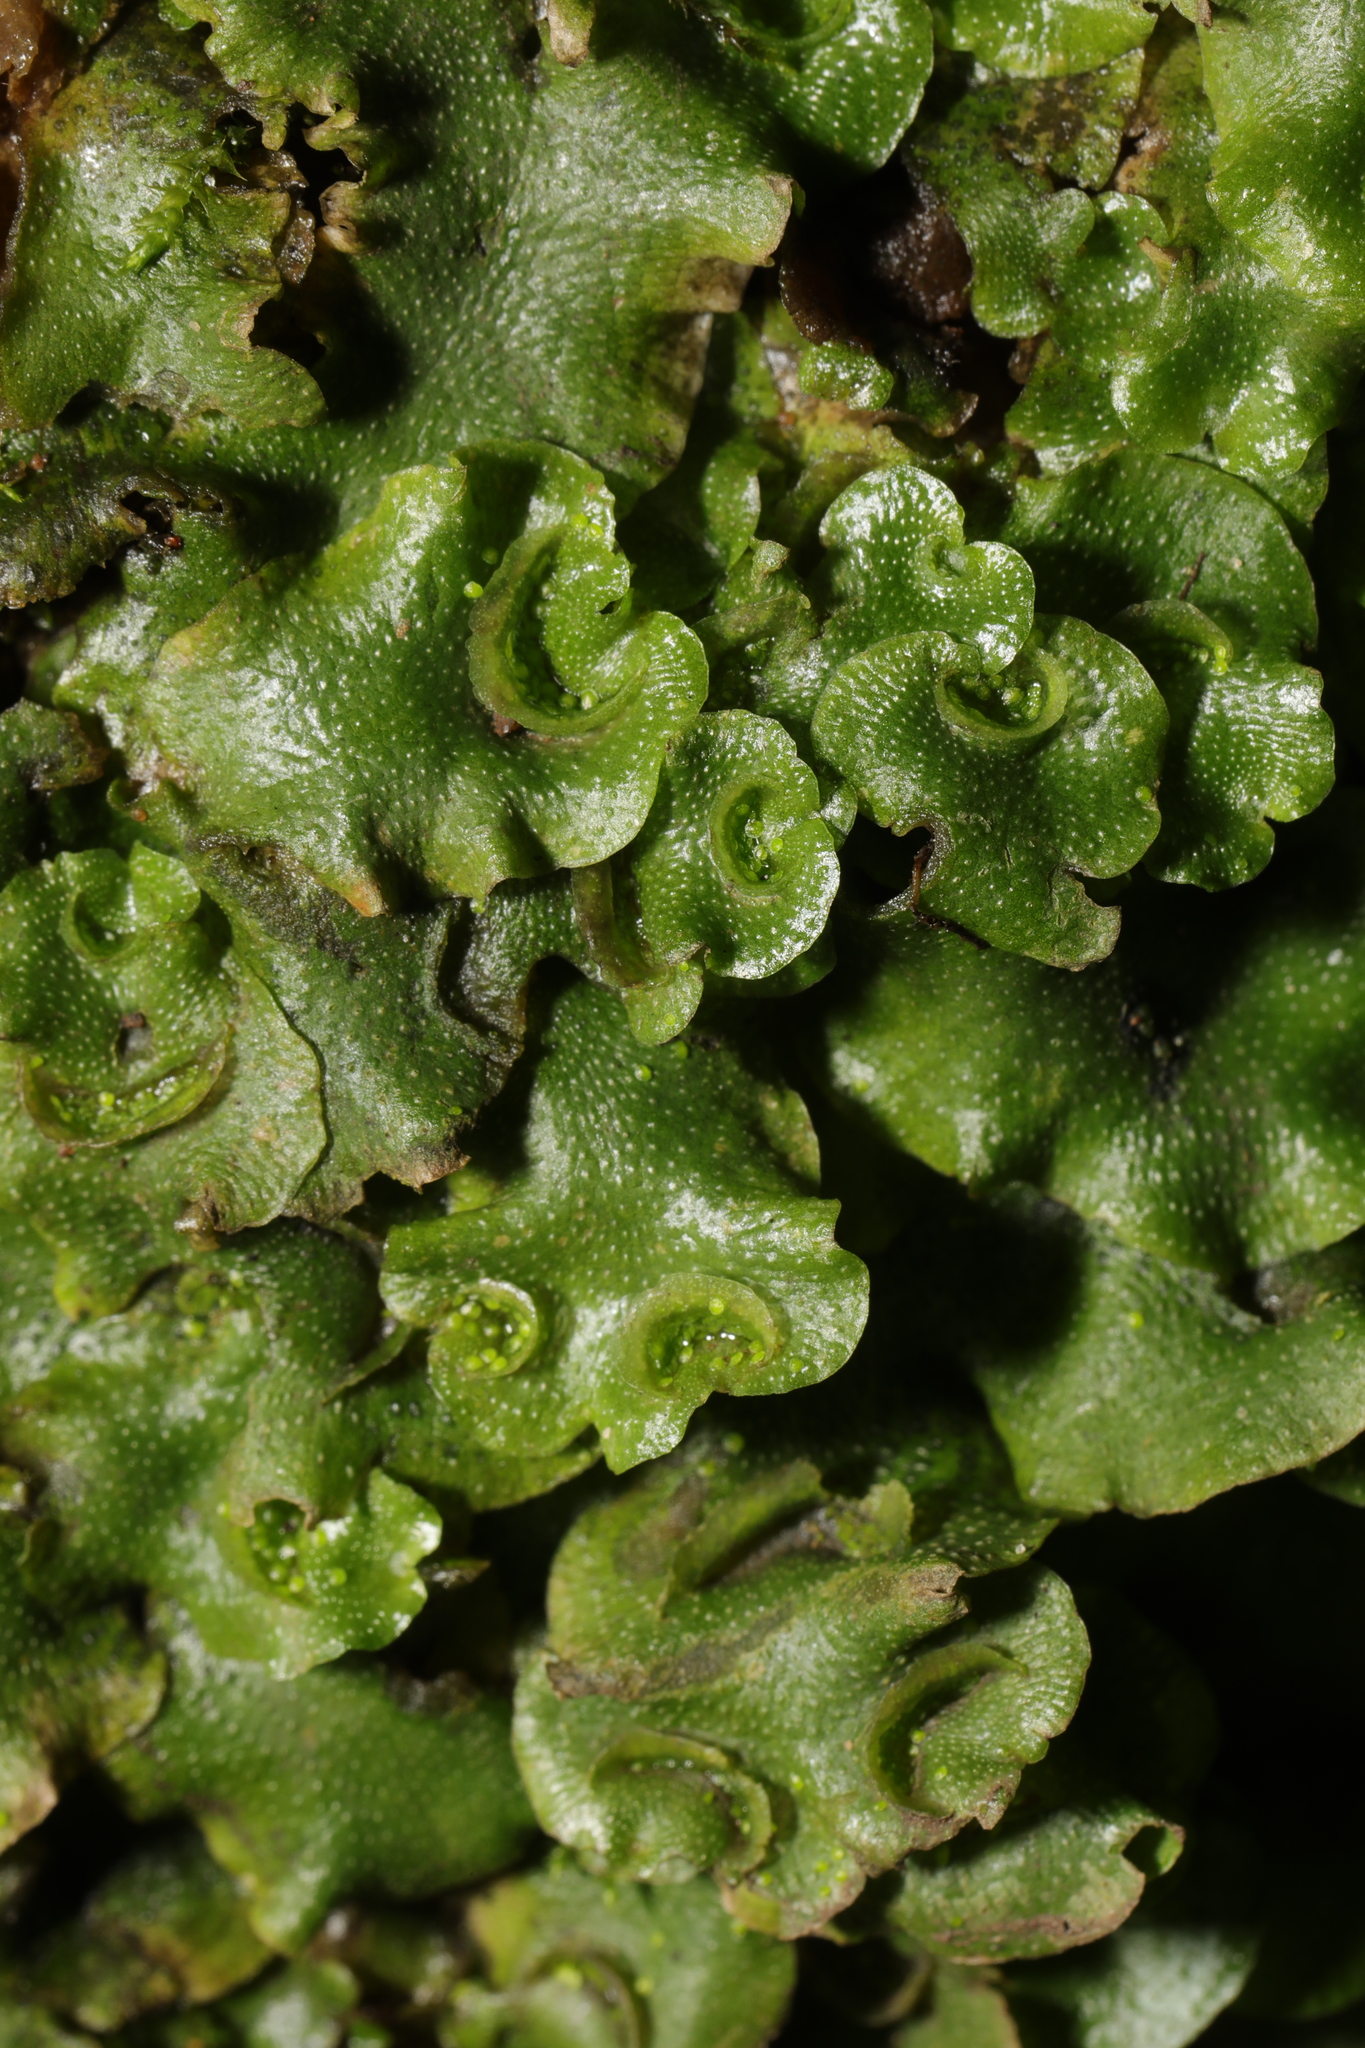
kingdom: Plantae
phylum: Marchantiophyta
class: Marchantiopsida
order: Lunulariales
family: Lunulariaceae
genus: Lunularia
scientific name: Lunularia cruciata
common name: Crescent-cup liverwort
